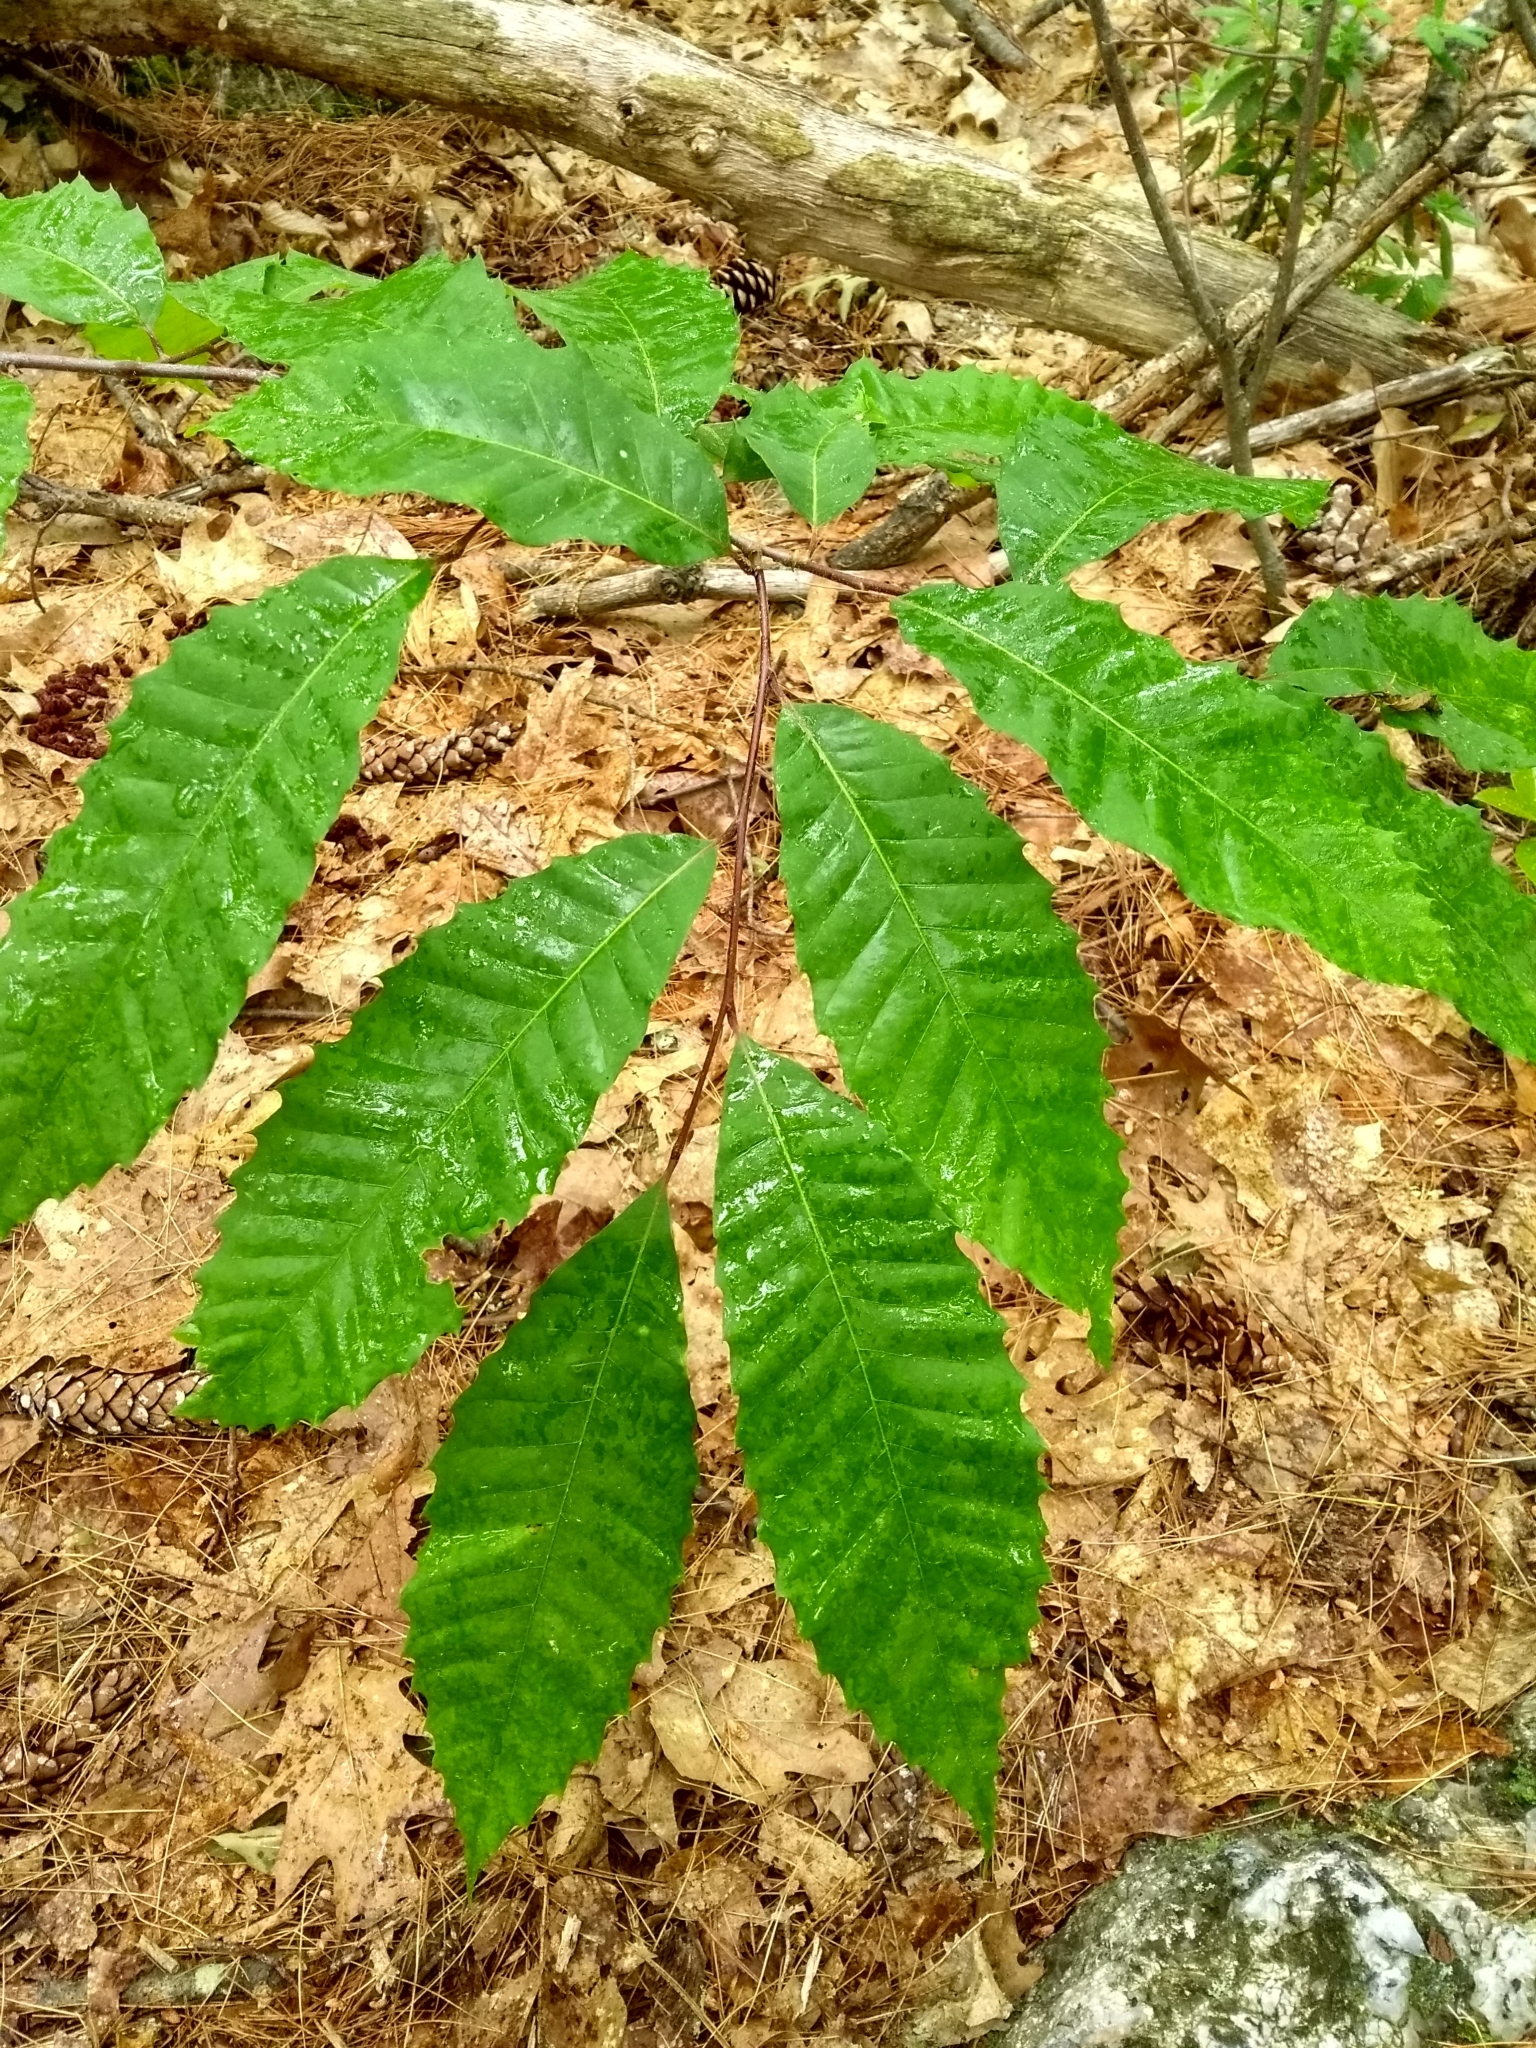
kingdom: Plantae
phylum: Tracheophyta
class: Magnoliopsida
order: Fagales
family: Fagaceae
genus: Castanea
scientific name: Castanea dentata
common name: American chestnut
